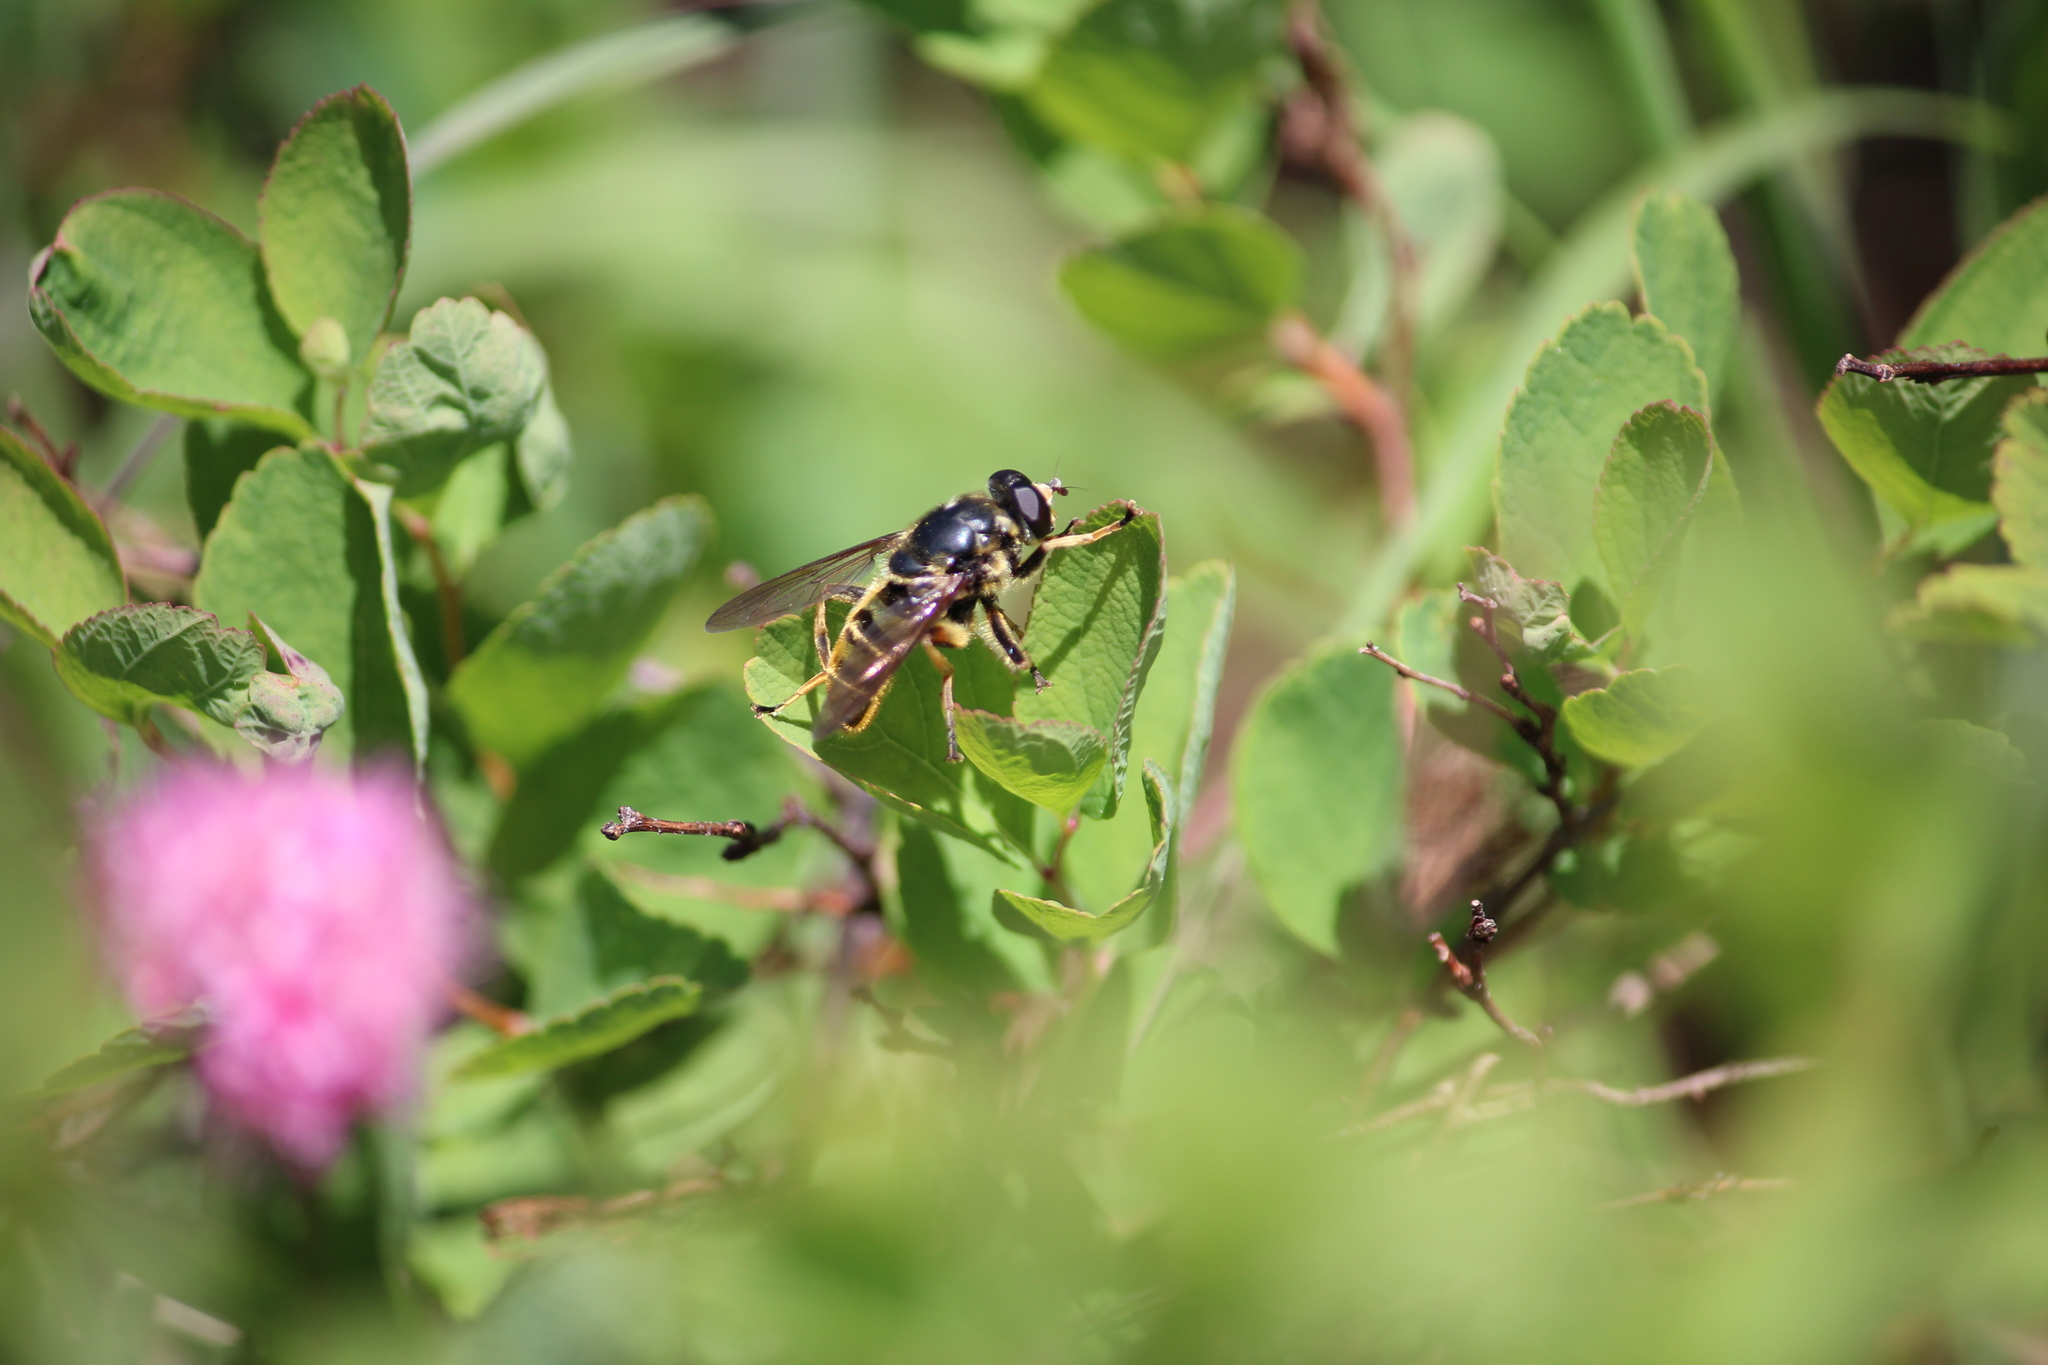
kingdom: Animalia
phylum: Arthropoda
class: Insecta
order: Diptera
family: Syrphidae
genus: Hadromyia
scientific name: Hadromyia pulchra
